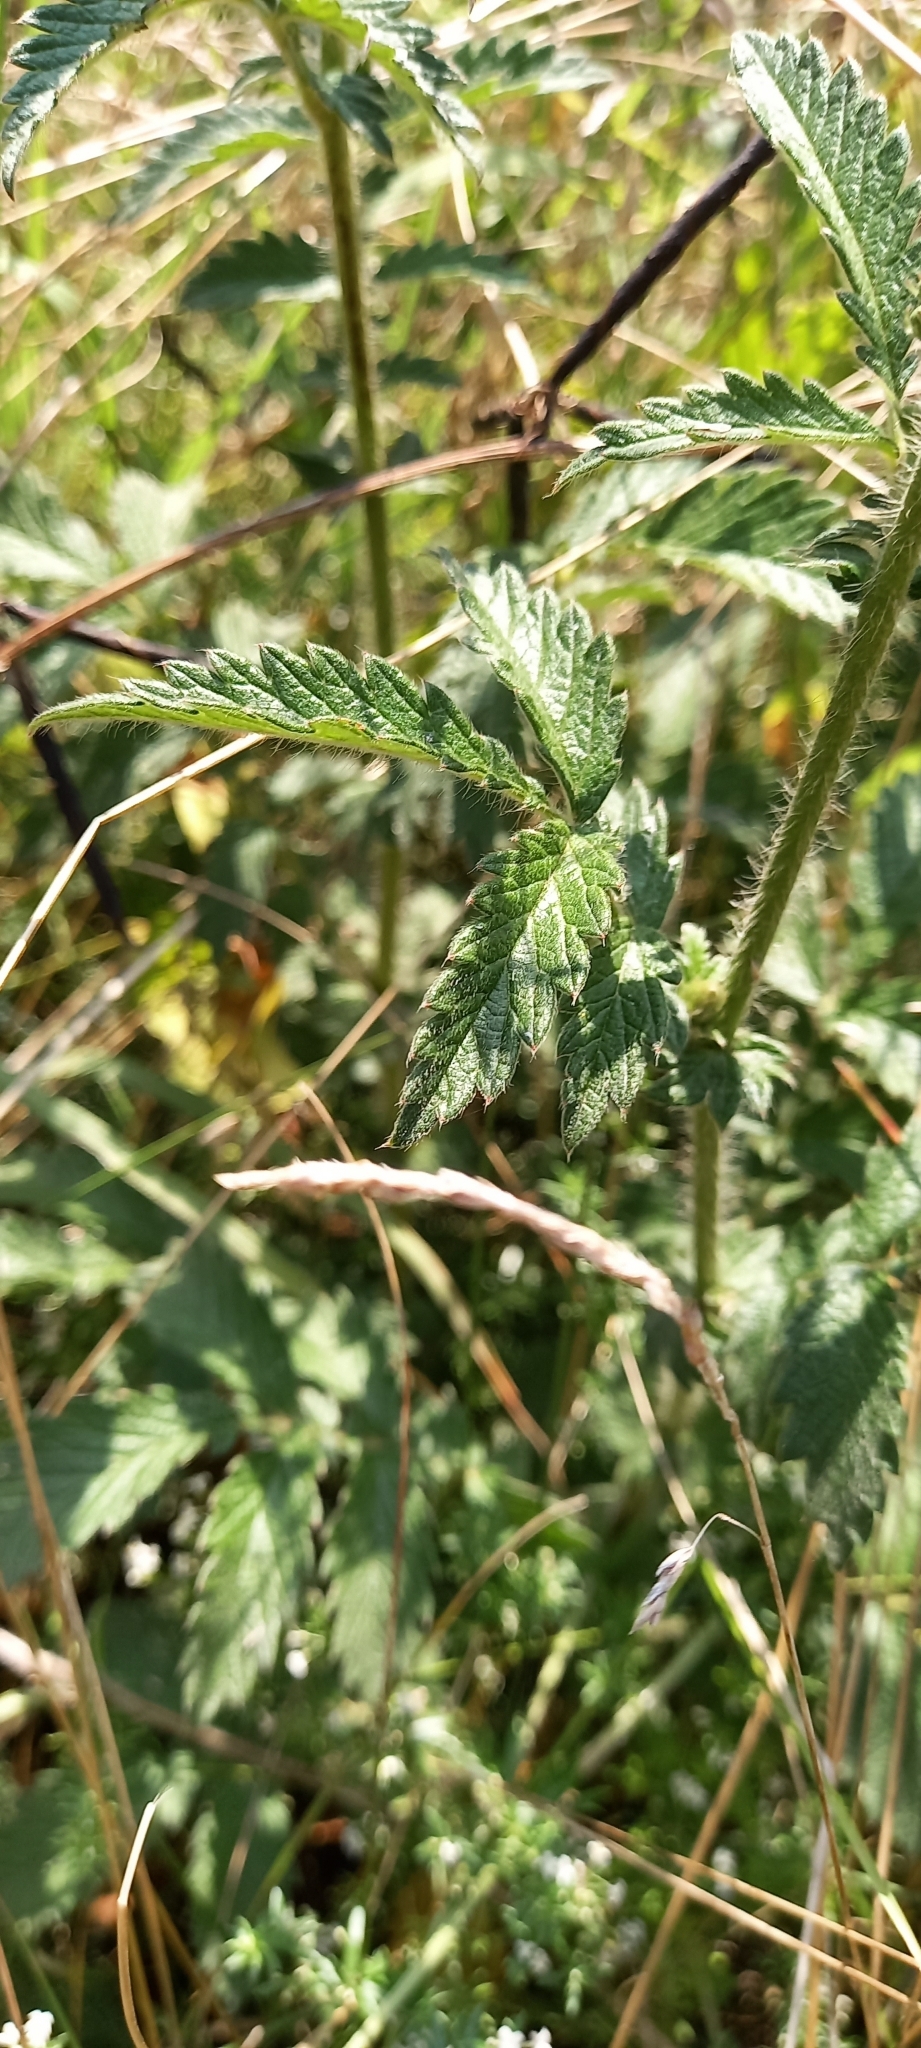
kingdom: Plantae
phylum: Tracheophyta
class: Magnoliopsida
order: Rosales
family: Rosaceae
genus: Agrimonia
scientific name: Agrimonia eupatoria
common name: Agrimony
